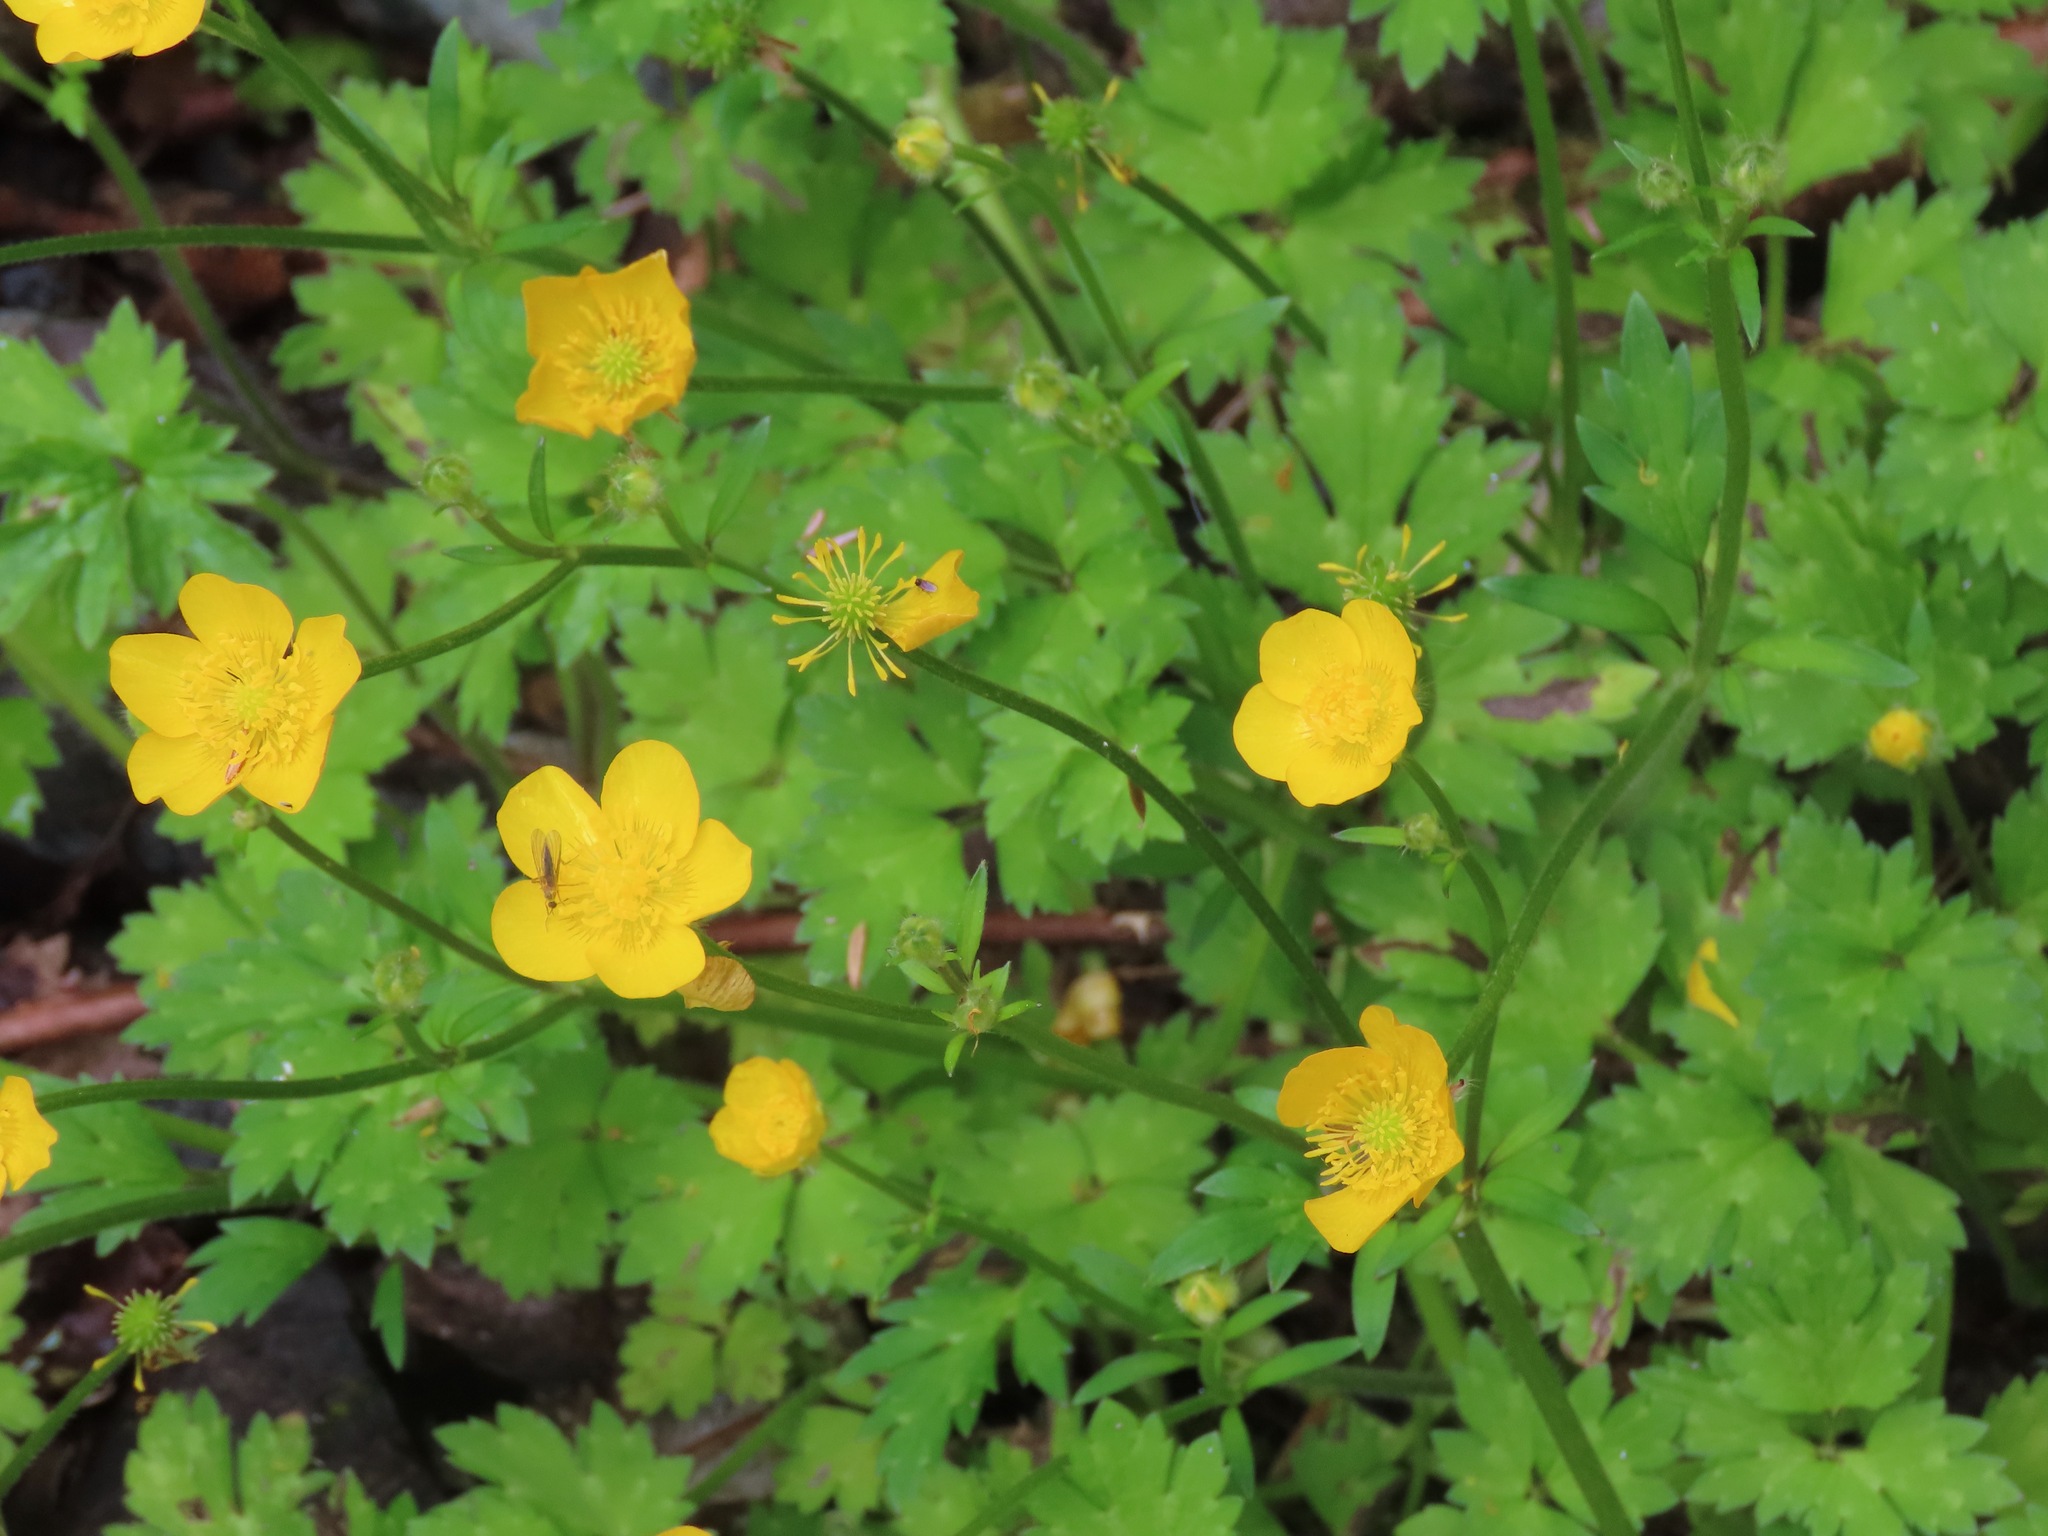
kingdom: Plantae
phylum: Tracheophyta
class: Magnoliopsida
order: Ranunculales
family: Ranunculaceae
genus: Ranunculus
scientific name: Ranunculus repens
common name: Creeping buttercup
